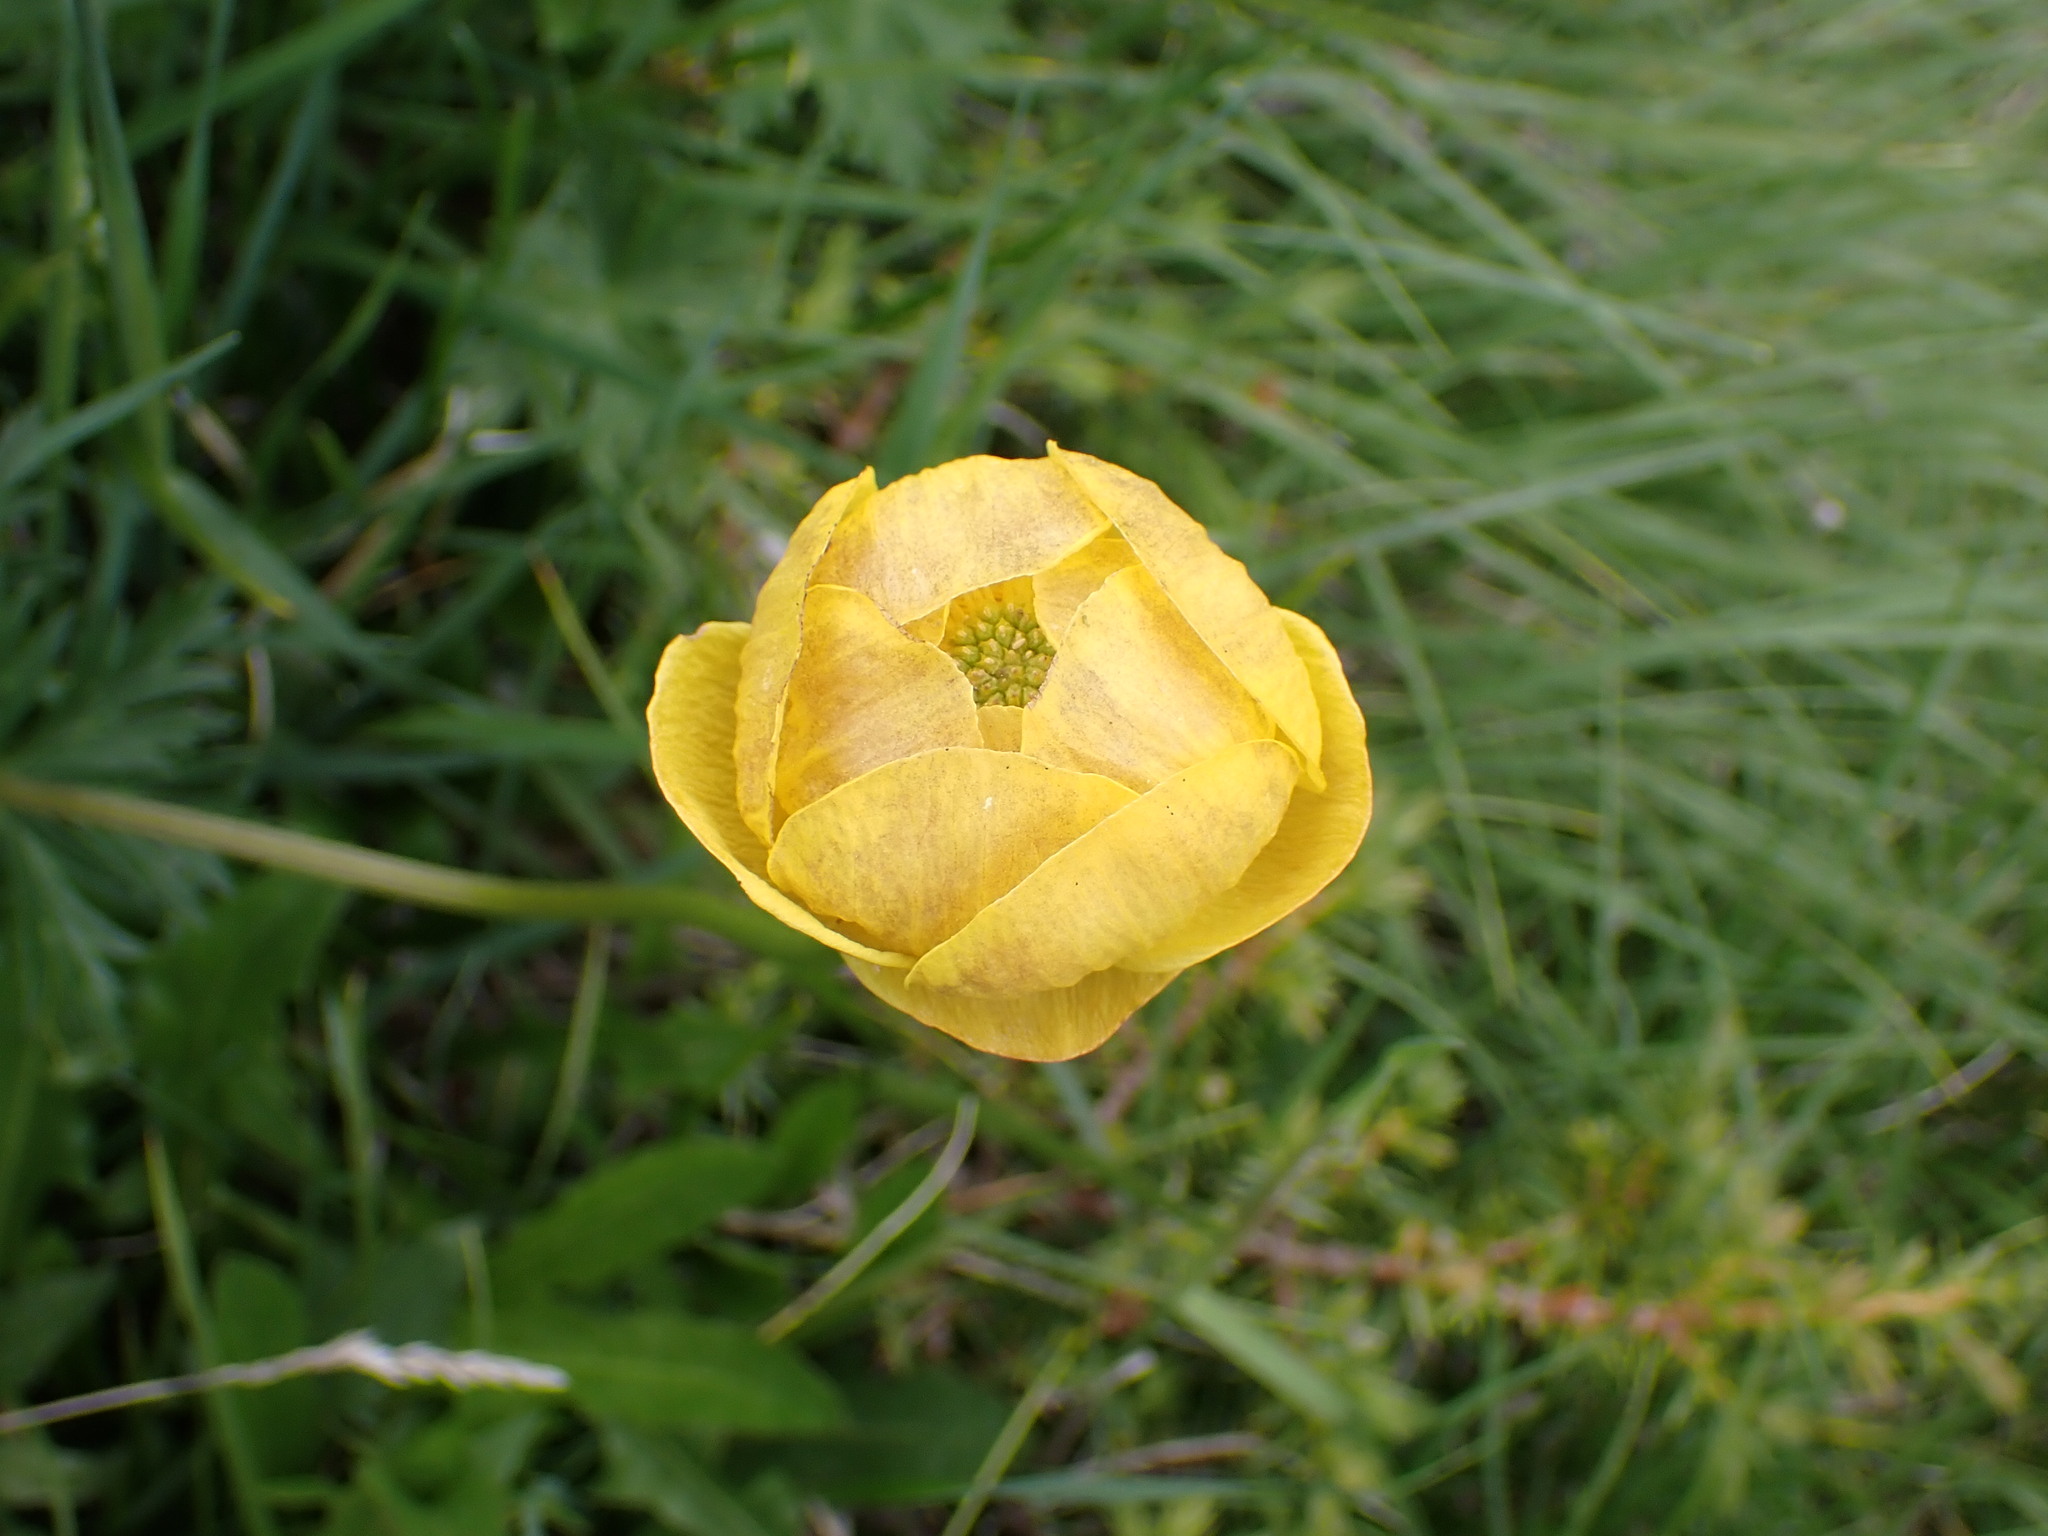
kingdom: Plantae
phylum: Tracheophyta
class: Magnoliopsida
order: Ranunculales
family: Ranunculaceae
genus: Trollius
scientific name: Trollius europaeus
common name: European globeflower
